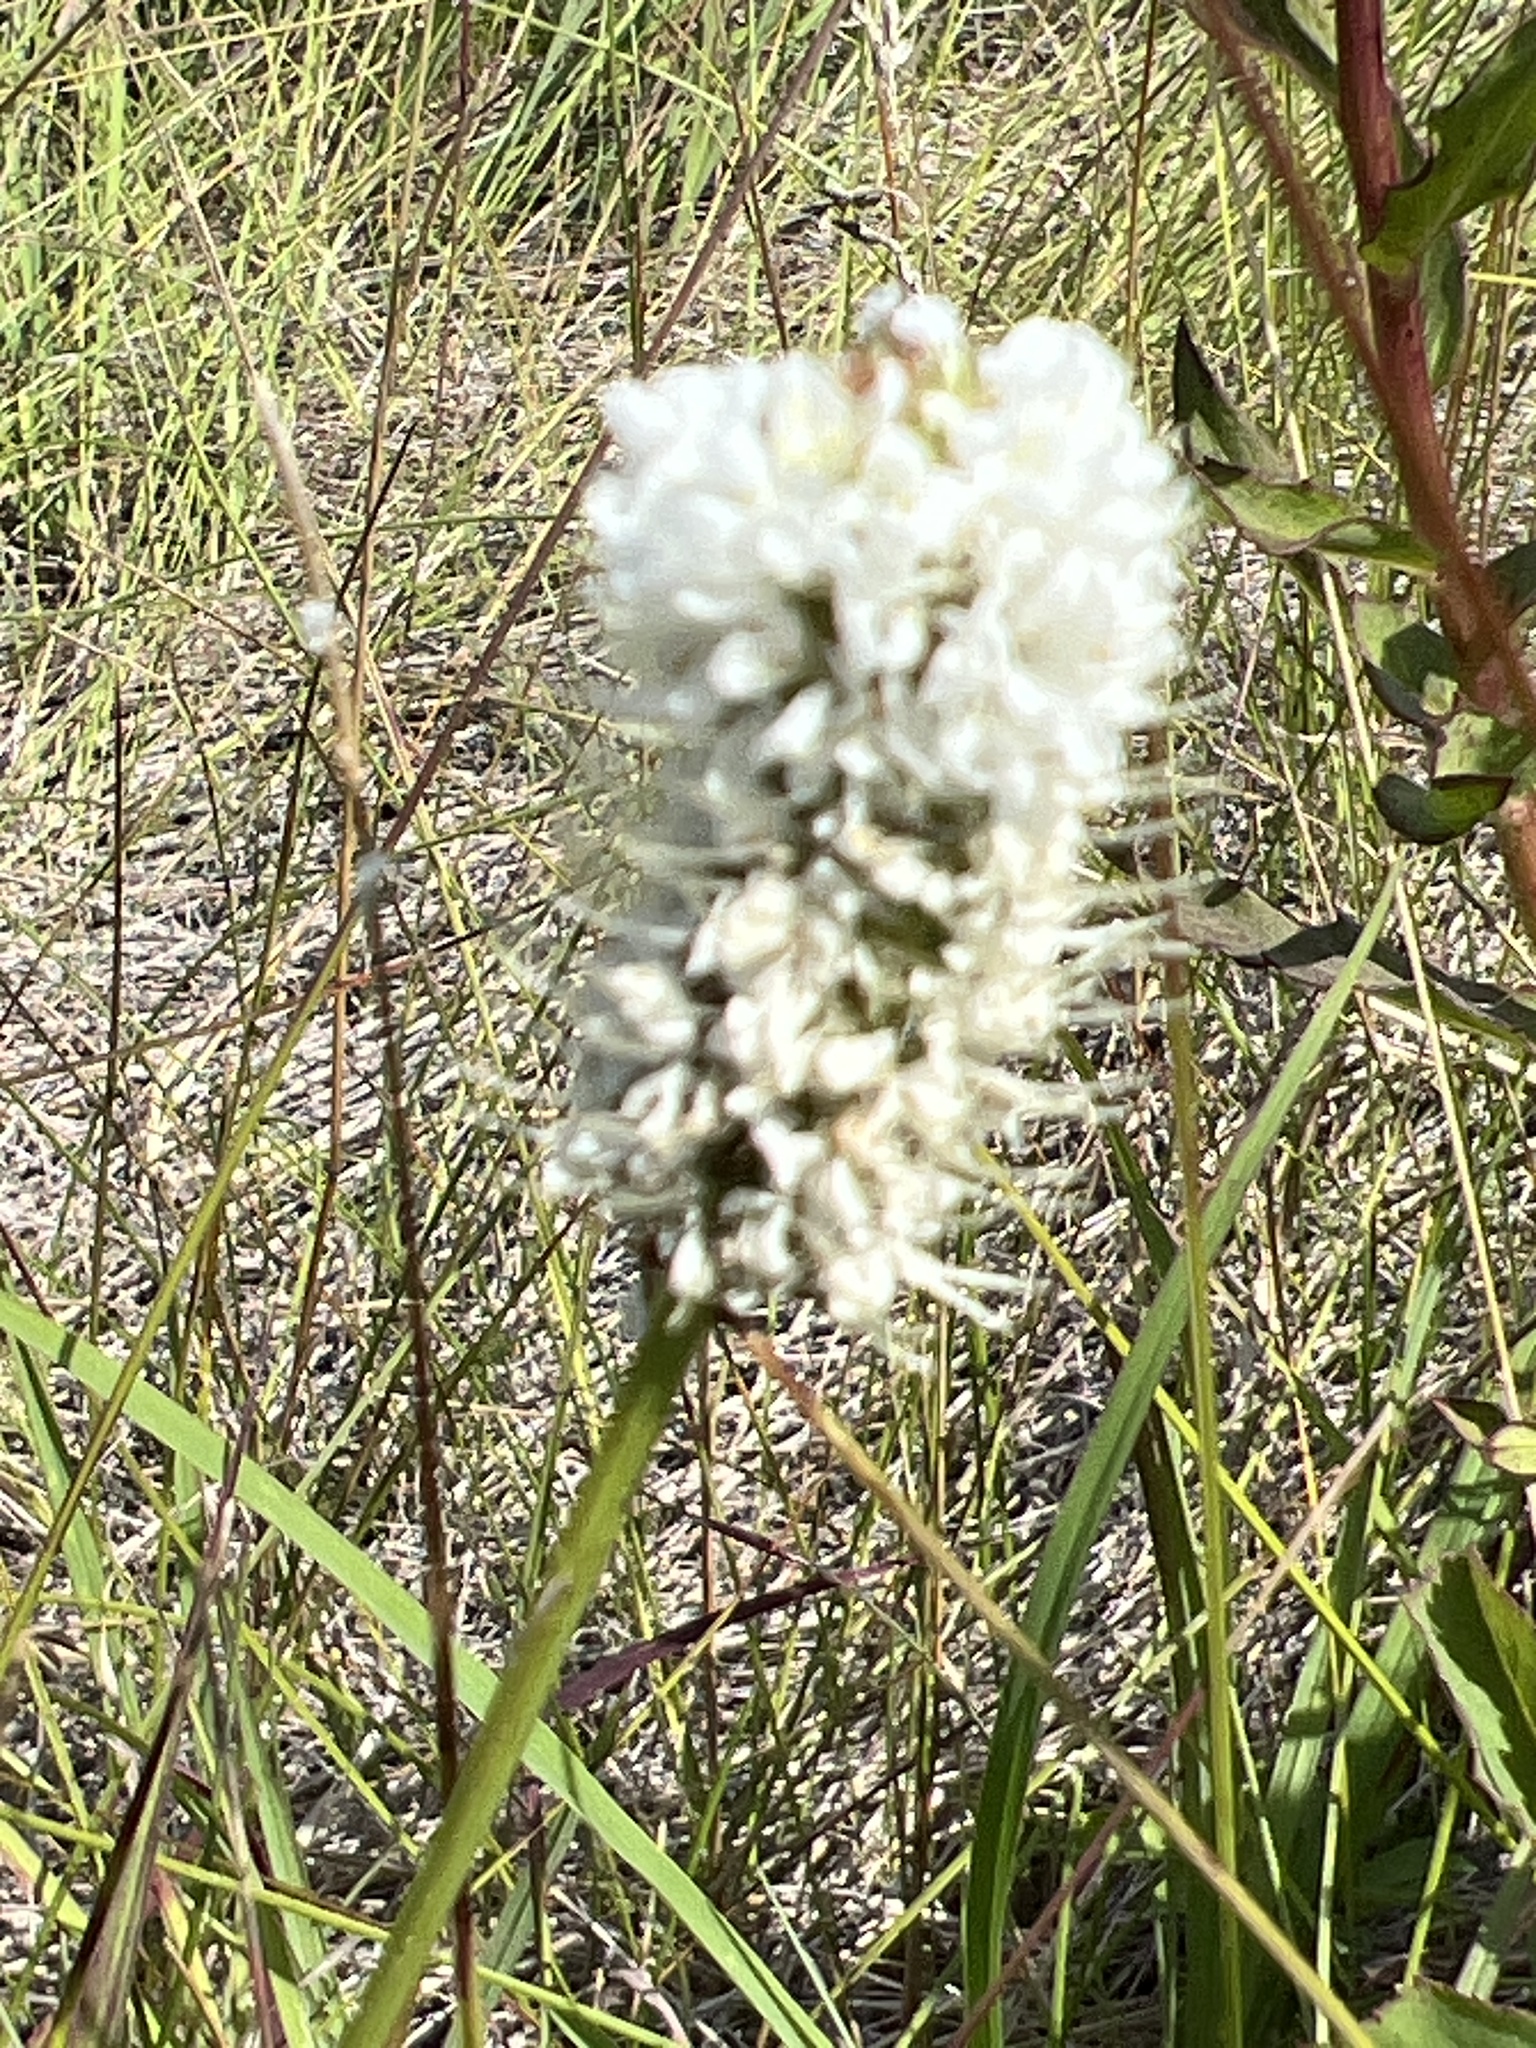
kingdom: Plantae
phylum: Tracheophyta
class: Magnoliopsida
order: Fabales
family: Fabaceae
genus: Dalea
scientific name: Dalea candida
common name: White prairie-clover
